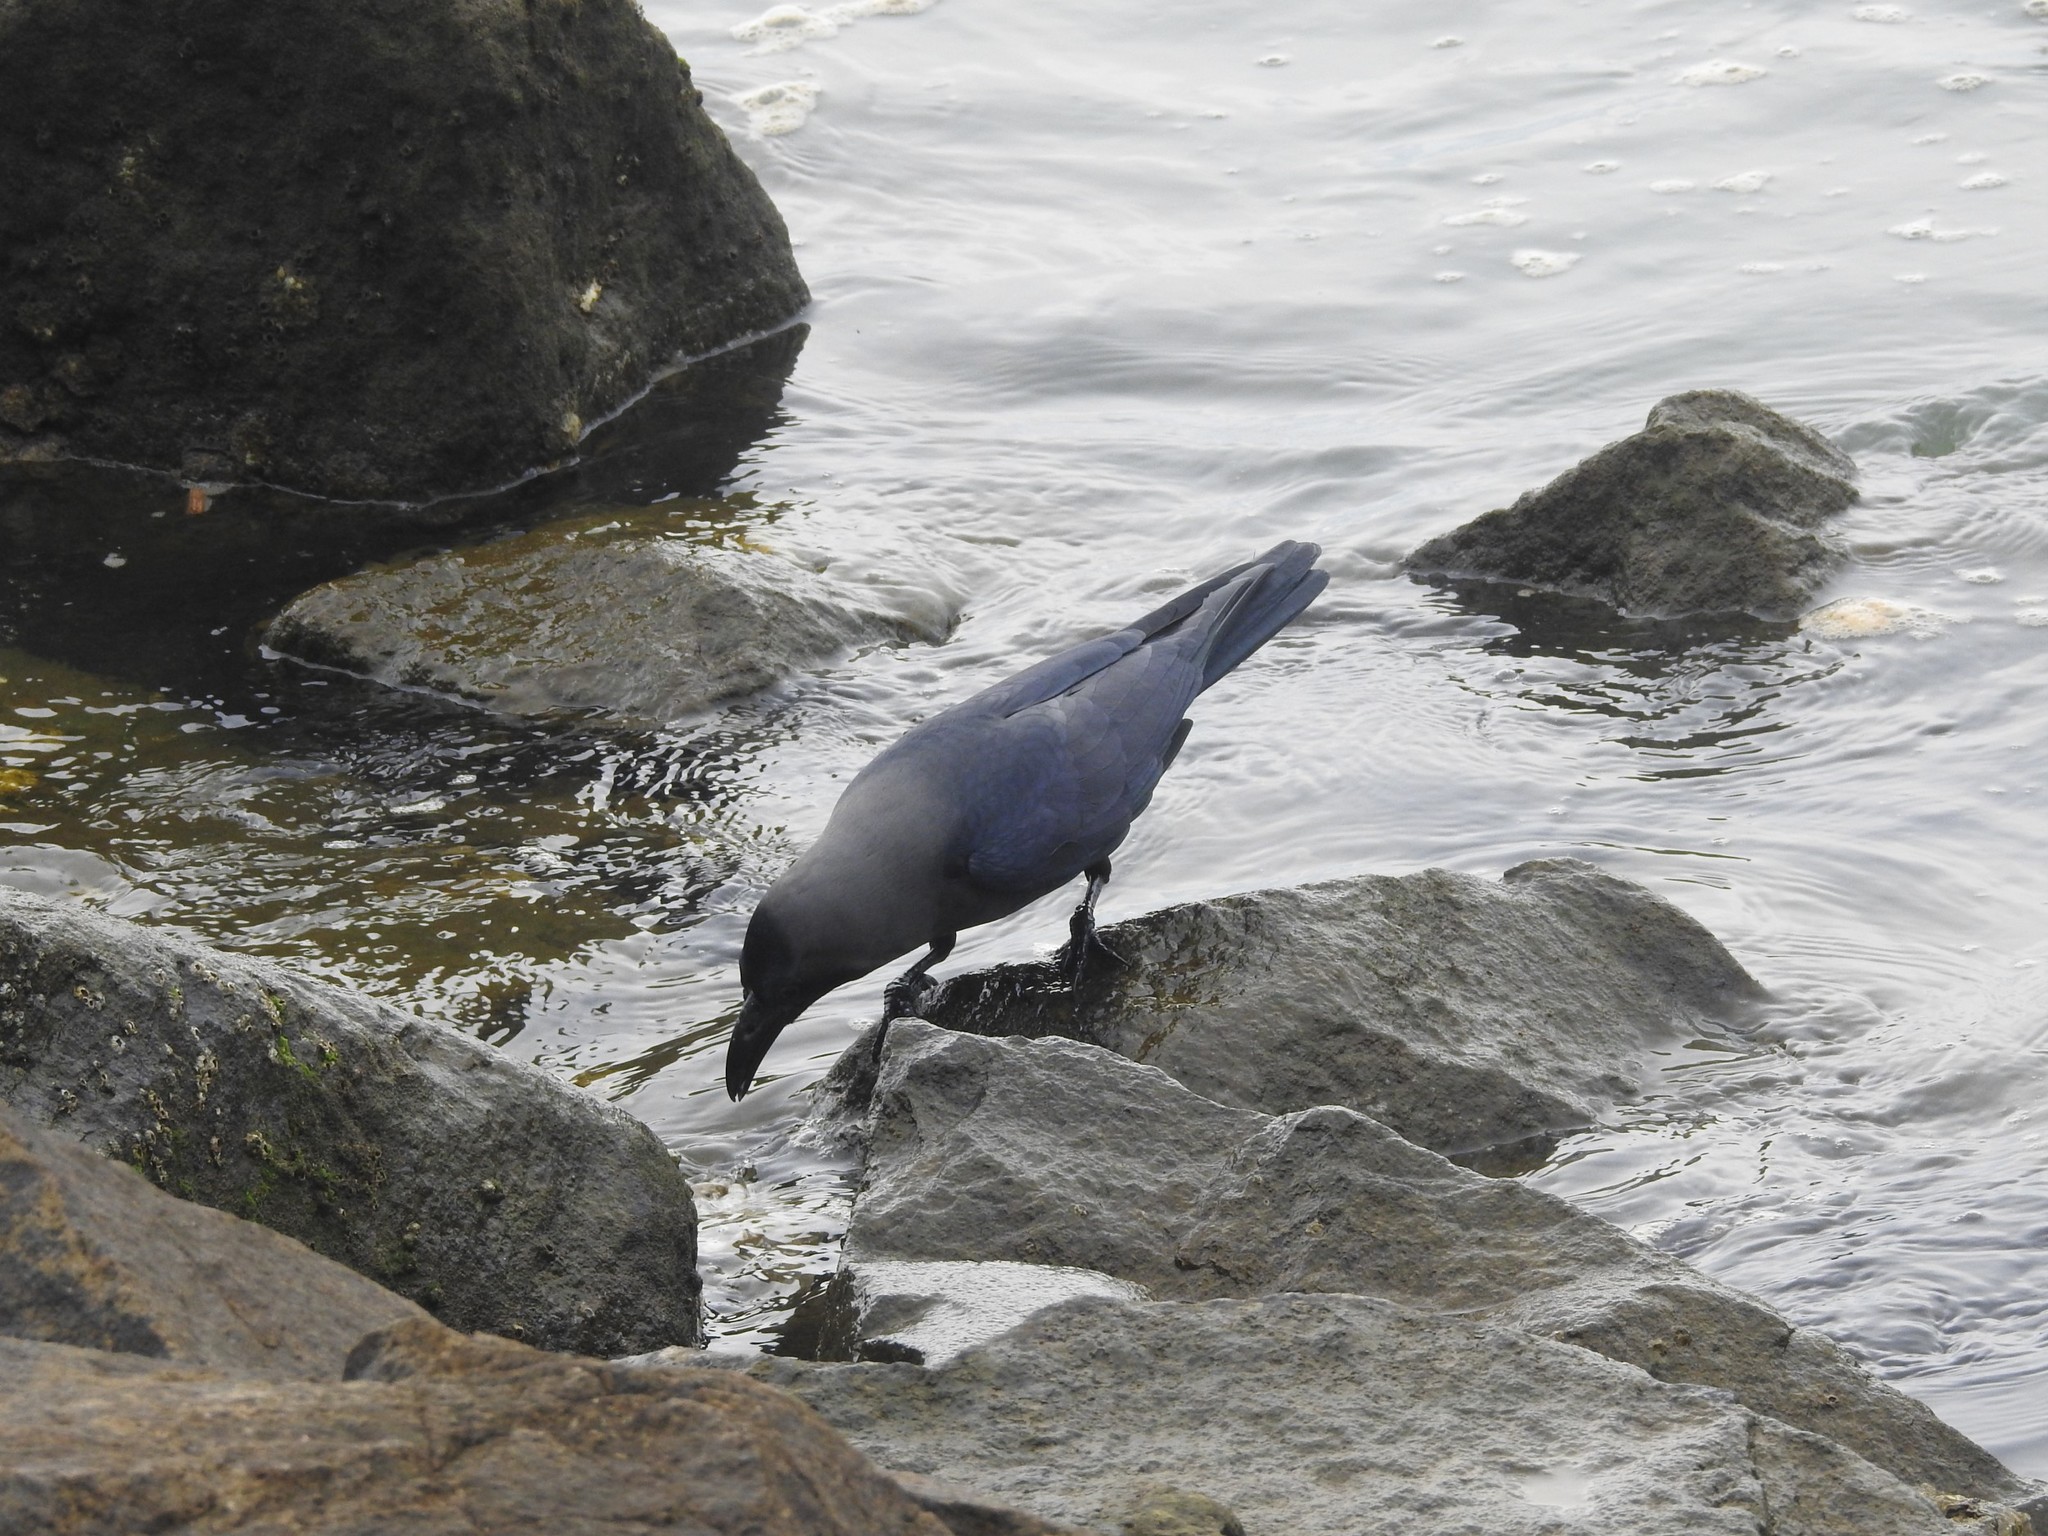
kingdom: Animalia
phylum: Chordata
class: Aves
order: Passeriformes
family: Corvidae
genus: Corvus
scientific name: Corvus splendens
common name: House crow
